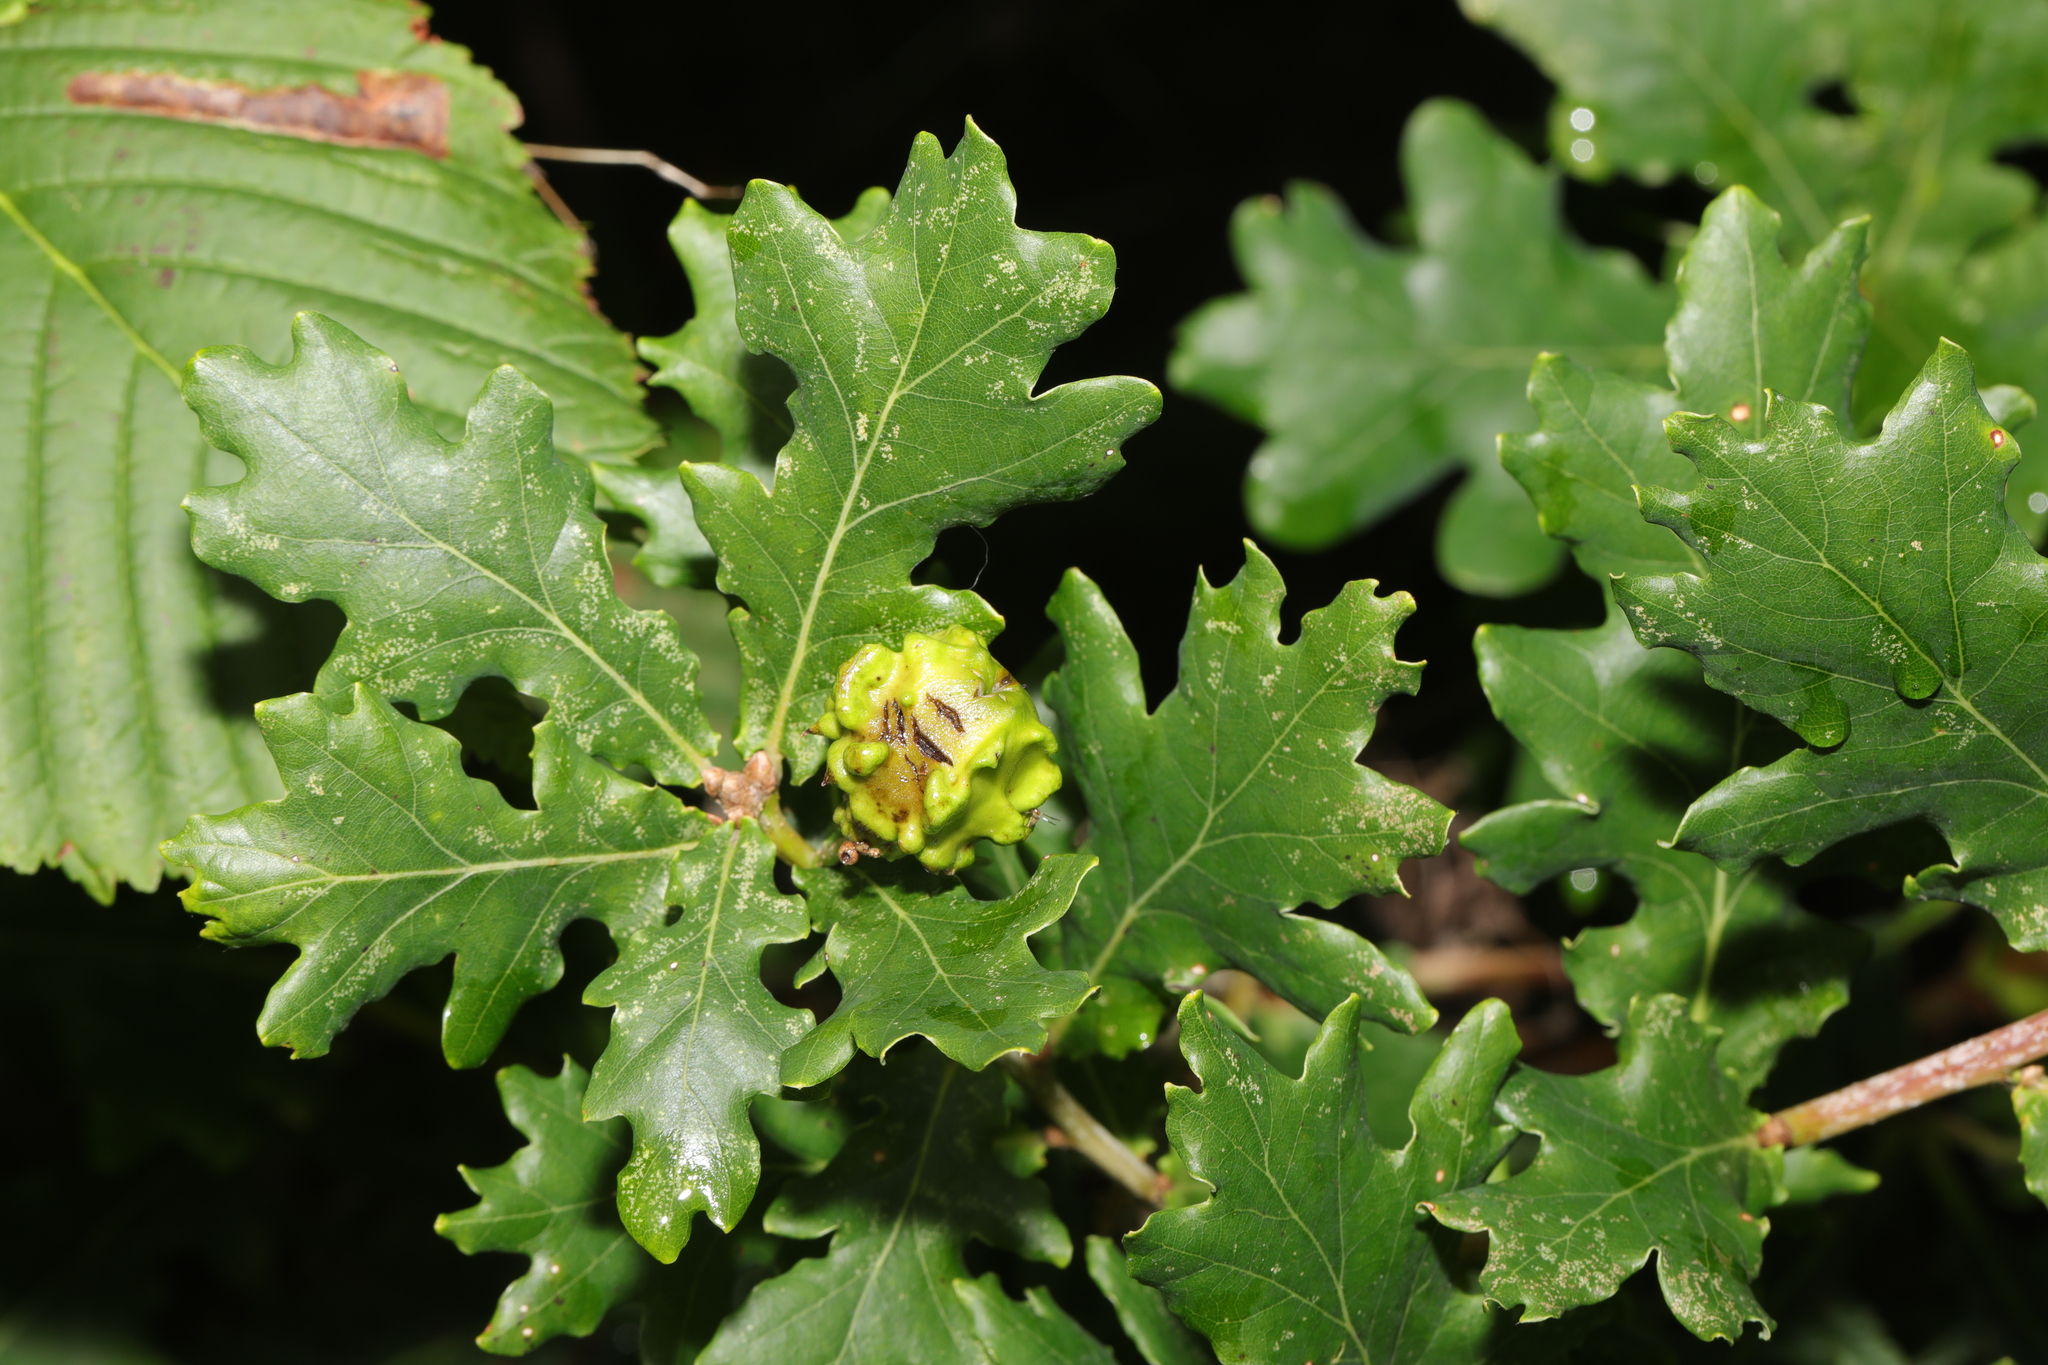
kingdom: Animalia
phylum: Arthropoda
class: Insecta
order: Hymenoptera
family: Cynipidae
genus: Andricus
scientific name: Andricus quercuscalicis
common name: Knopper gall
